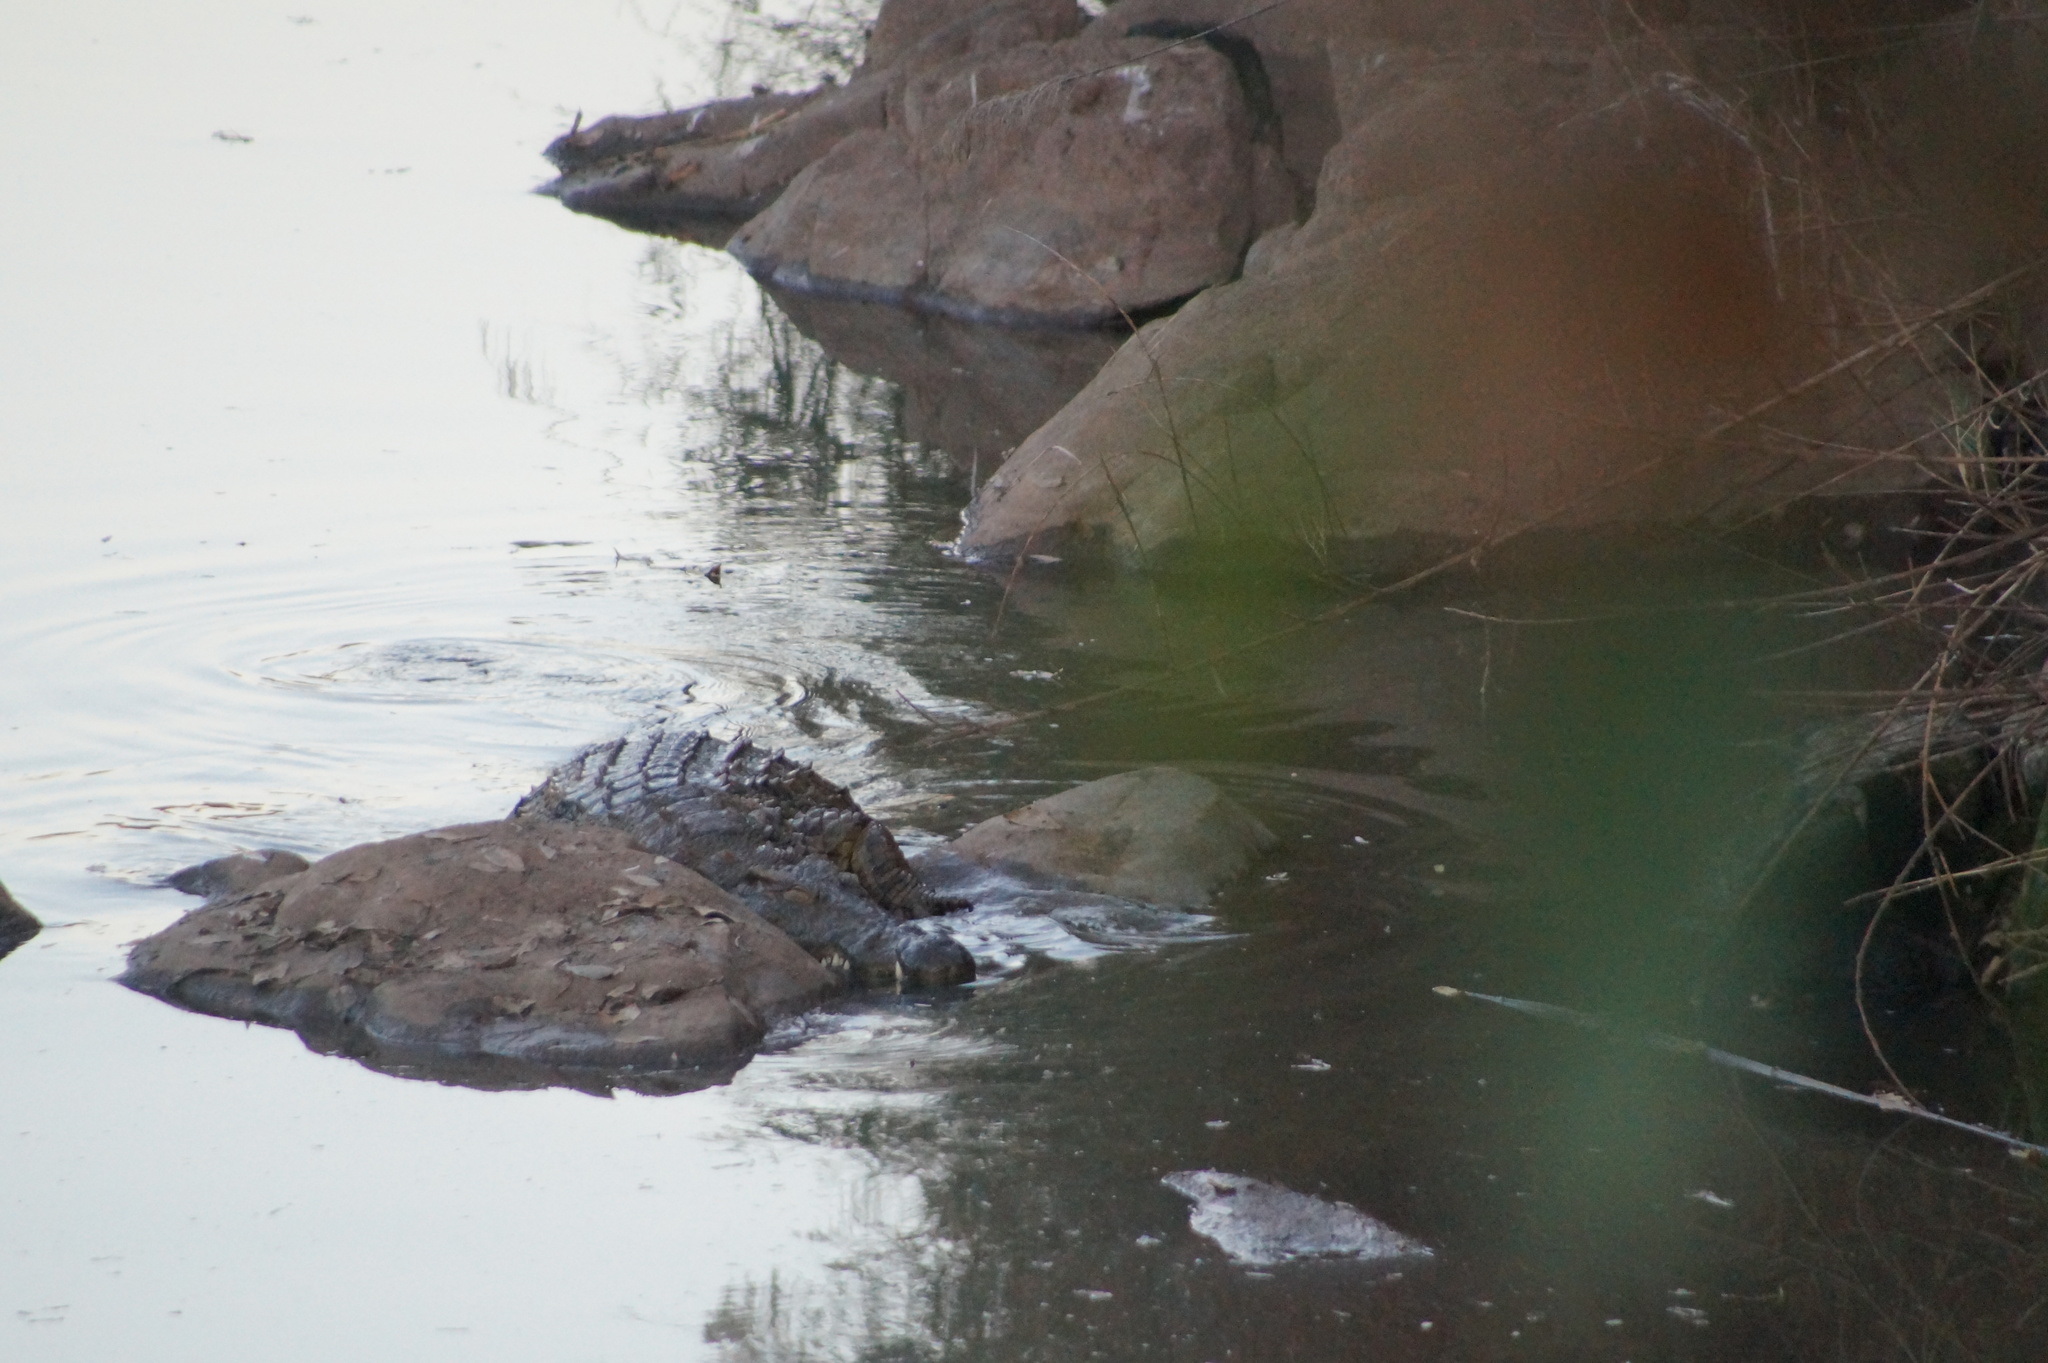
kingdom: Animalia
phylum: Chordata
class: Crocodylia
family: Crocodylidae
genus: Crocodylus
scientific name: Crocodylus niloticus
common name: Nile crocodile
